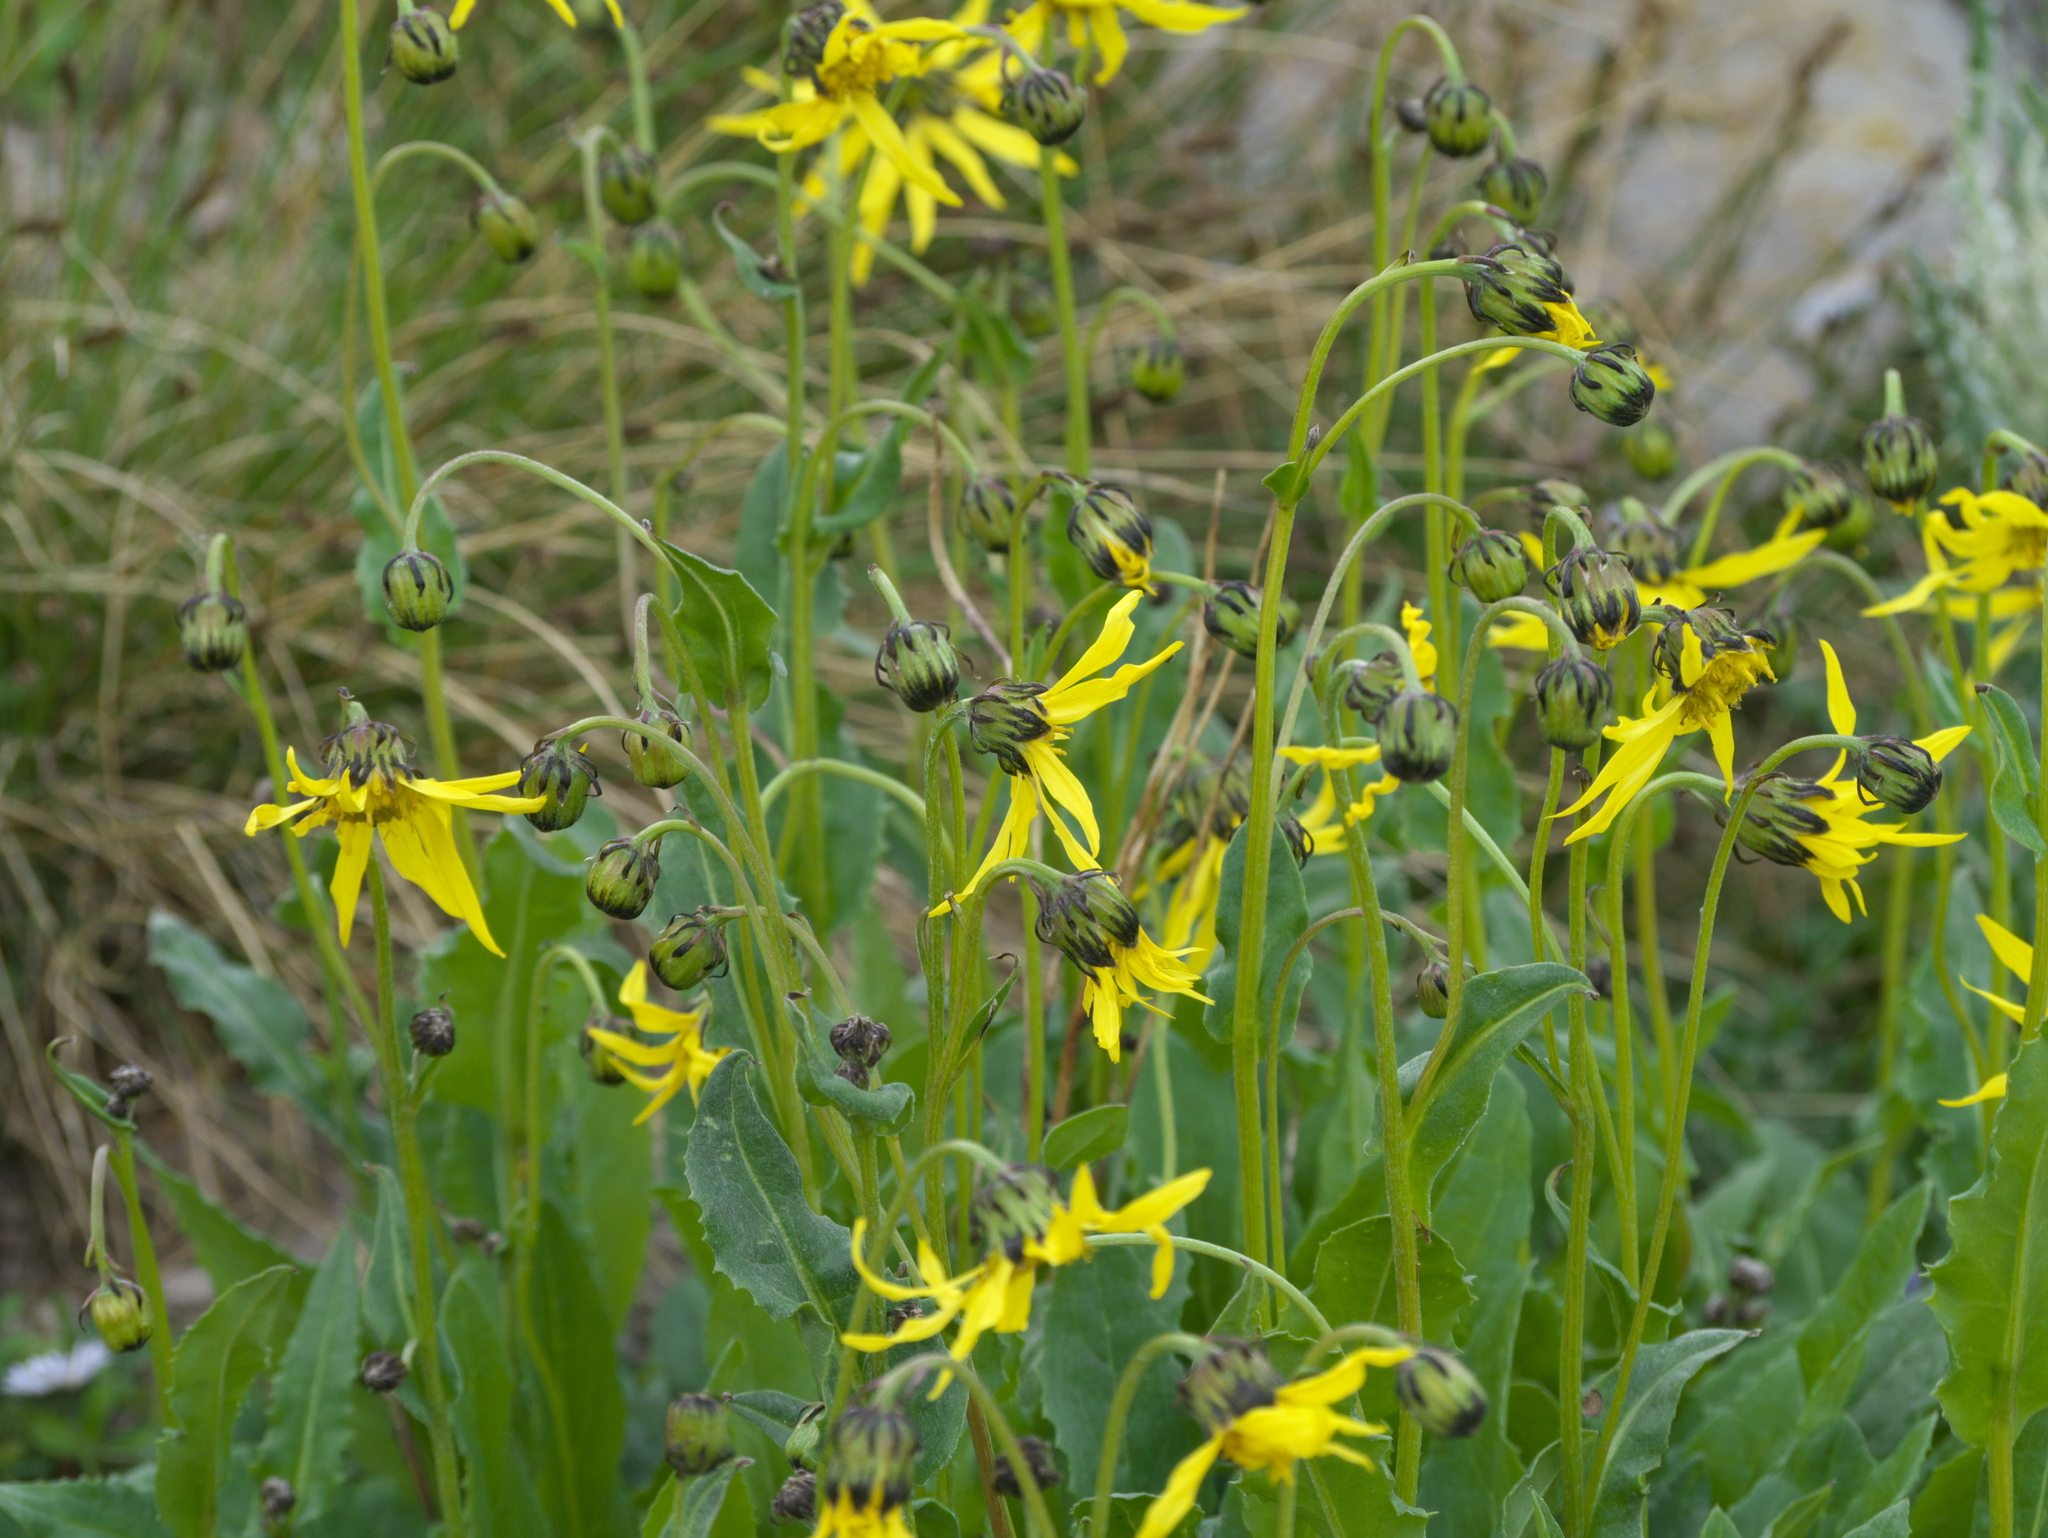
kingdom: Plantae
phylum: Tracheophyta
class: Magnoliopsida
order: Asterales
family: Asteraceae
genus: Senecio
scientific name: Senecio amplectens
